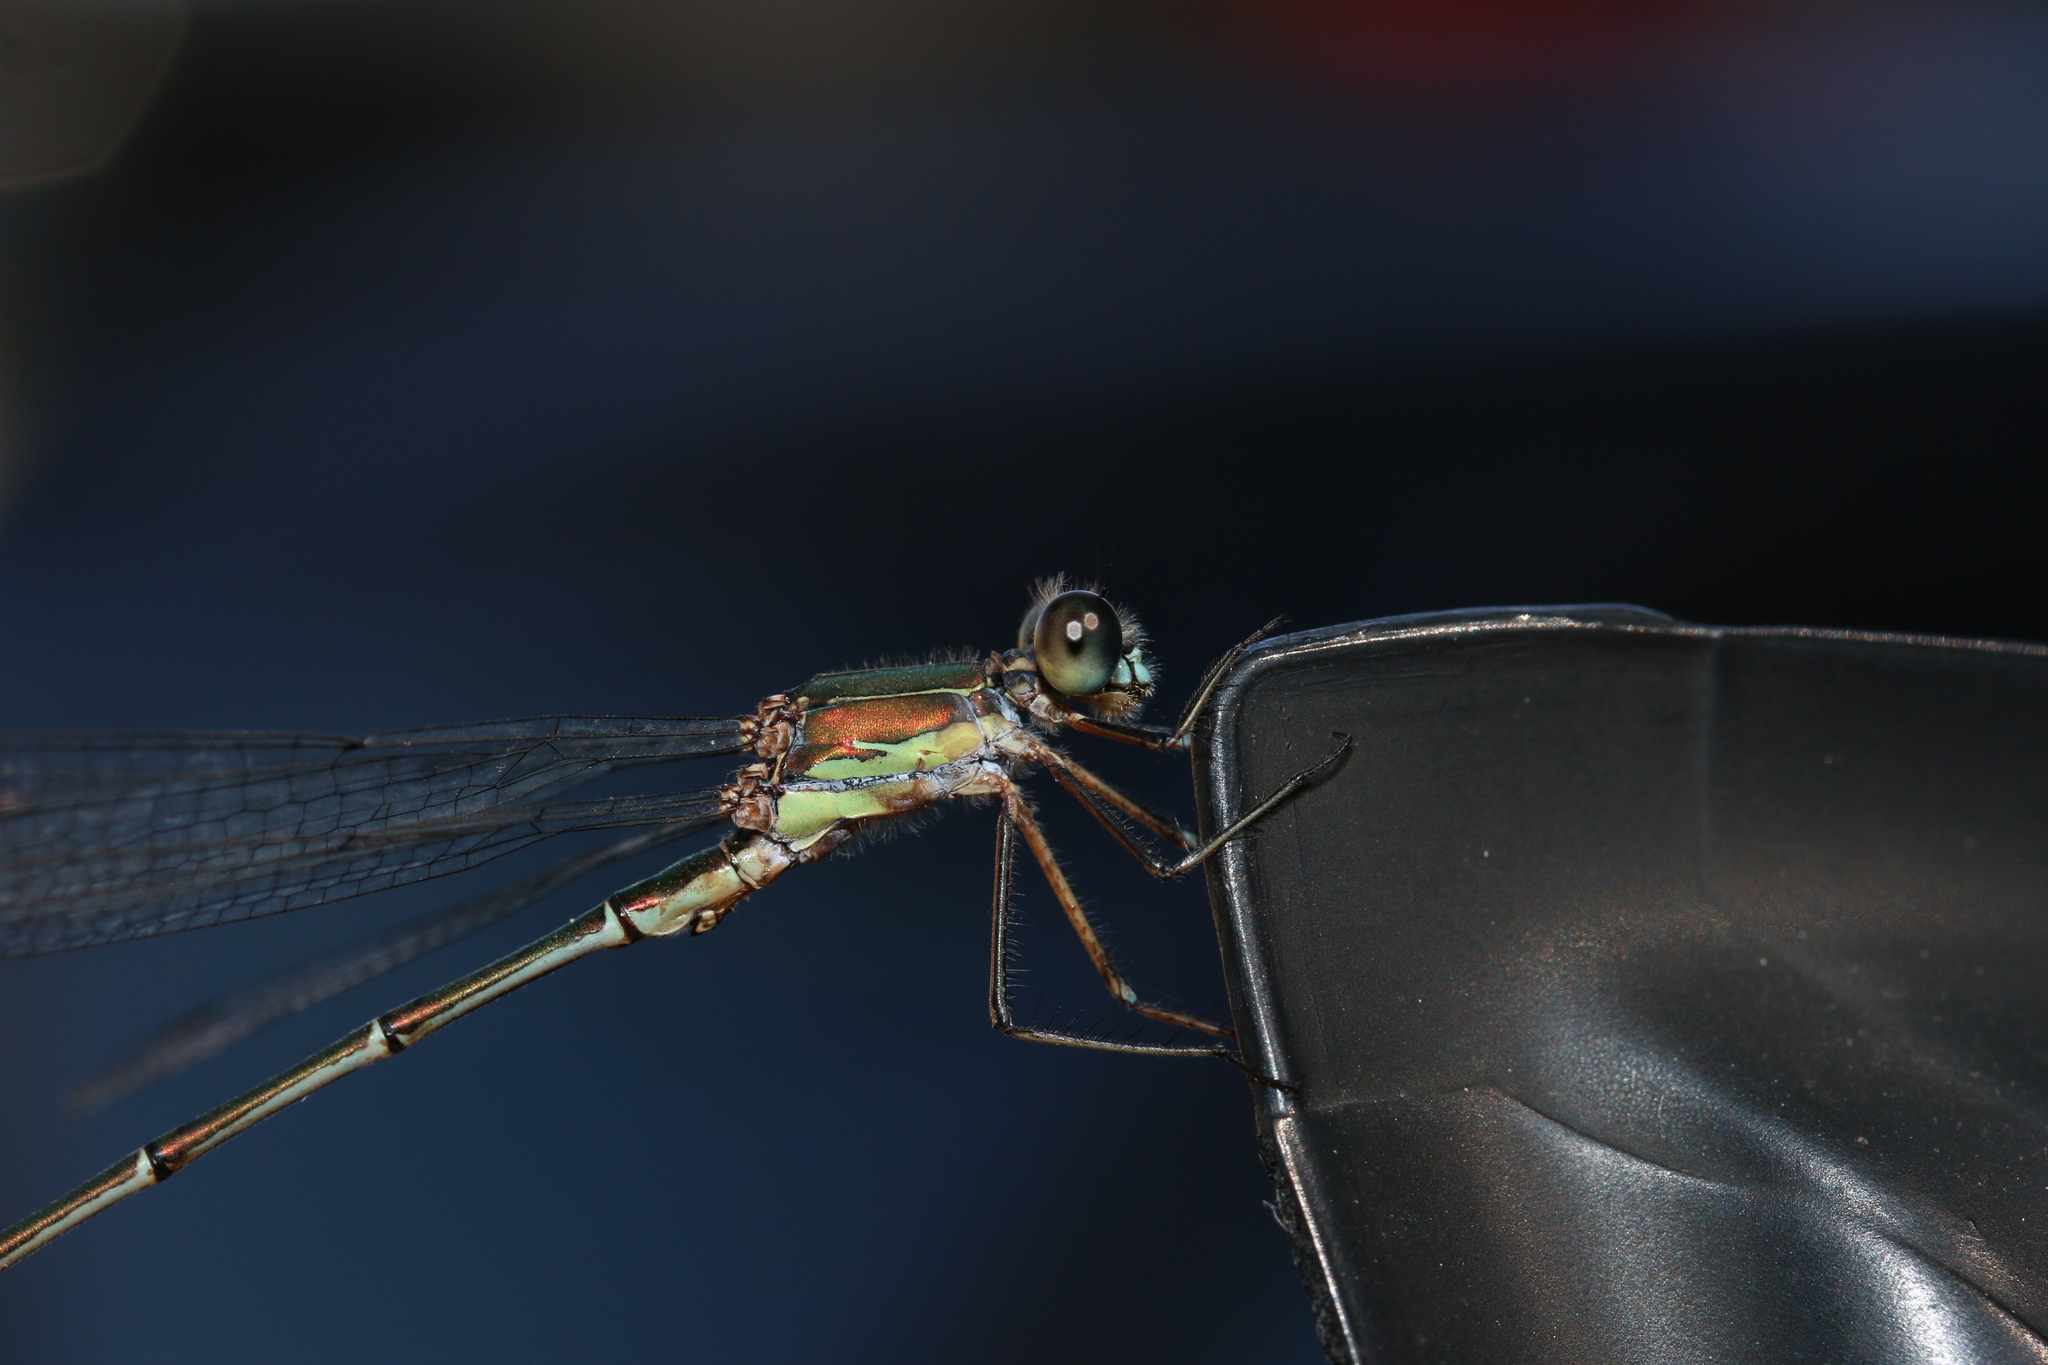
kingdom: Animalia
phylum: Arthropoda
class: Insecta
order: Odonata
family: Lestidae
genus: Chalcolestes
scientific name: Chalcolestes viridis
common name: Green emerald damselfly
